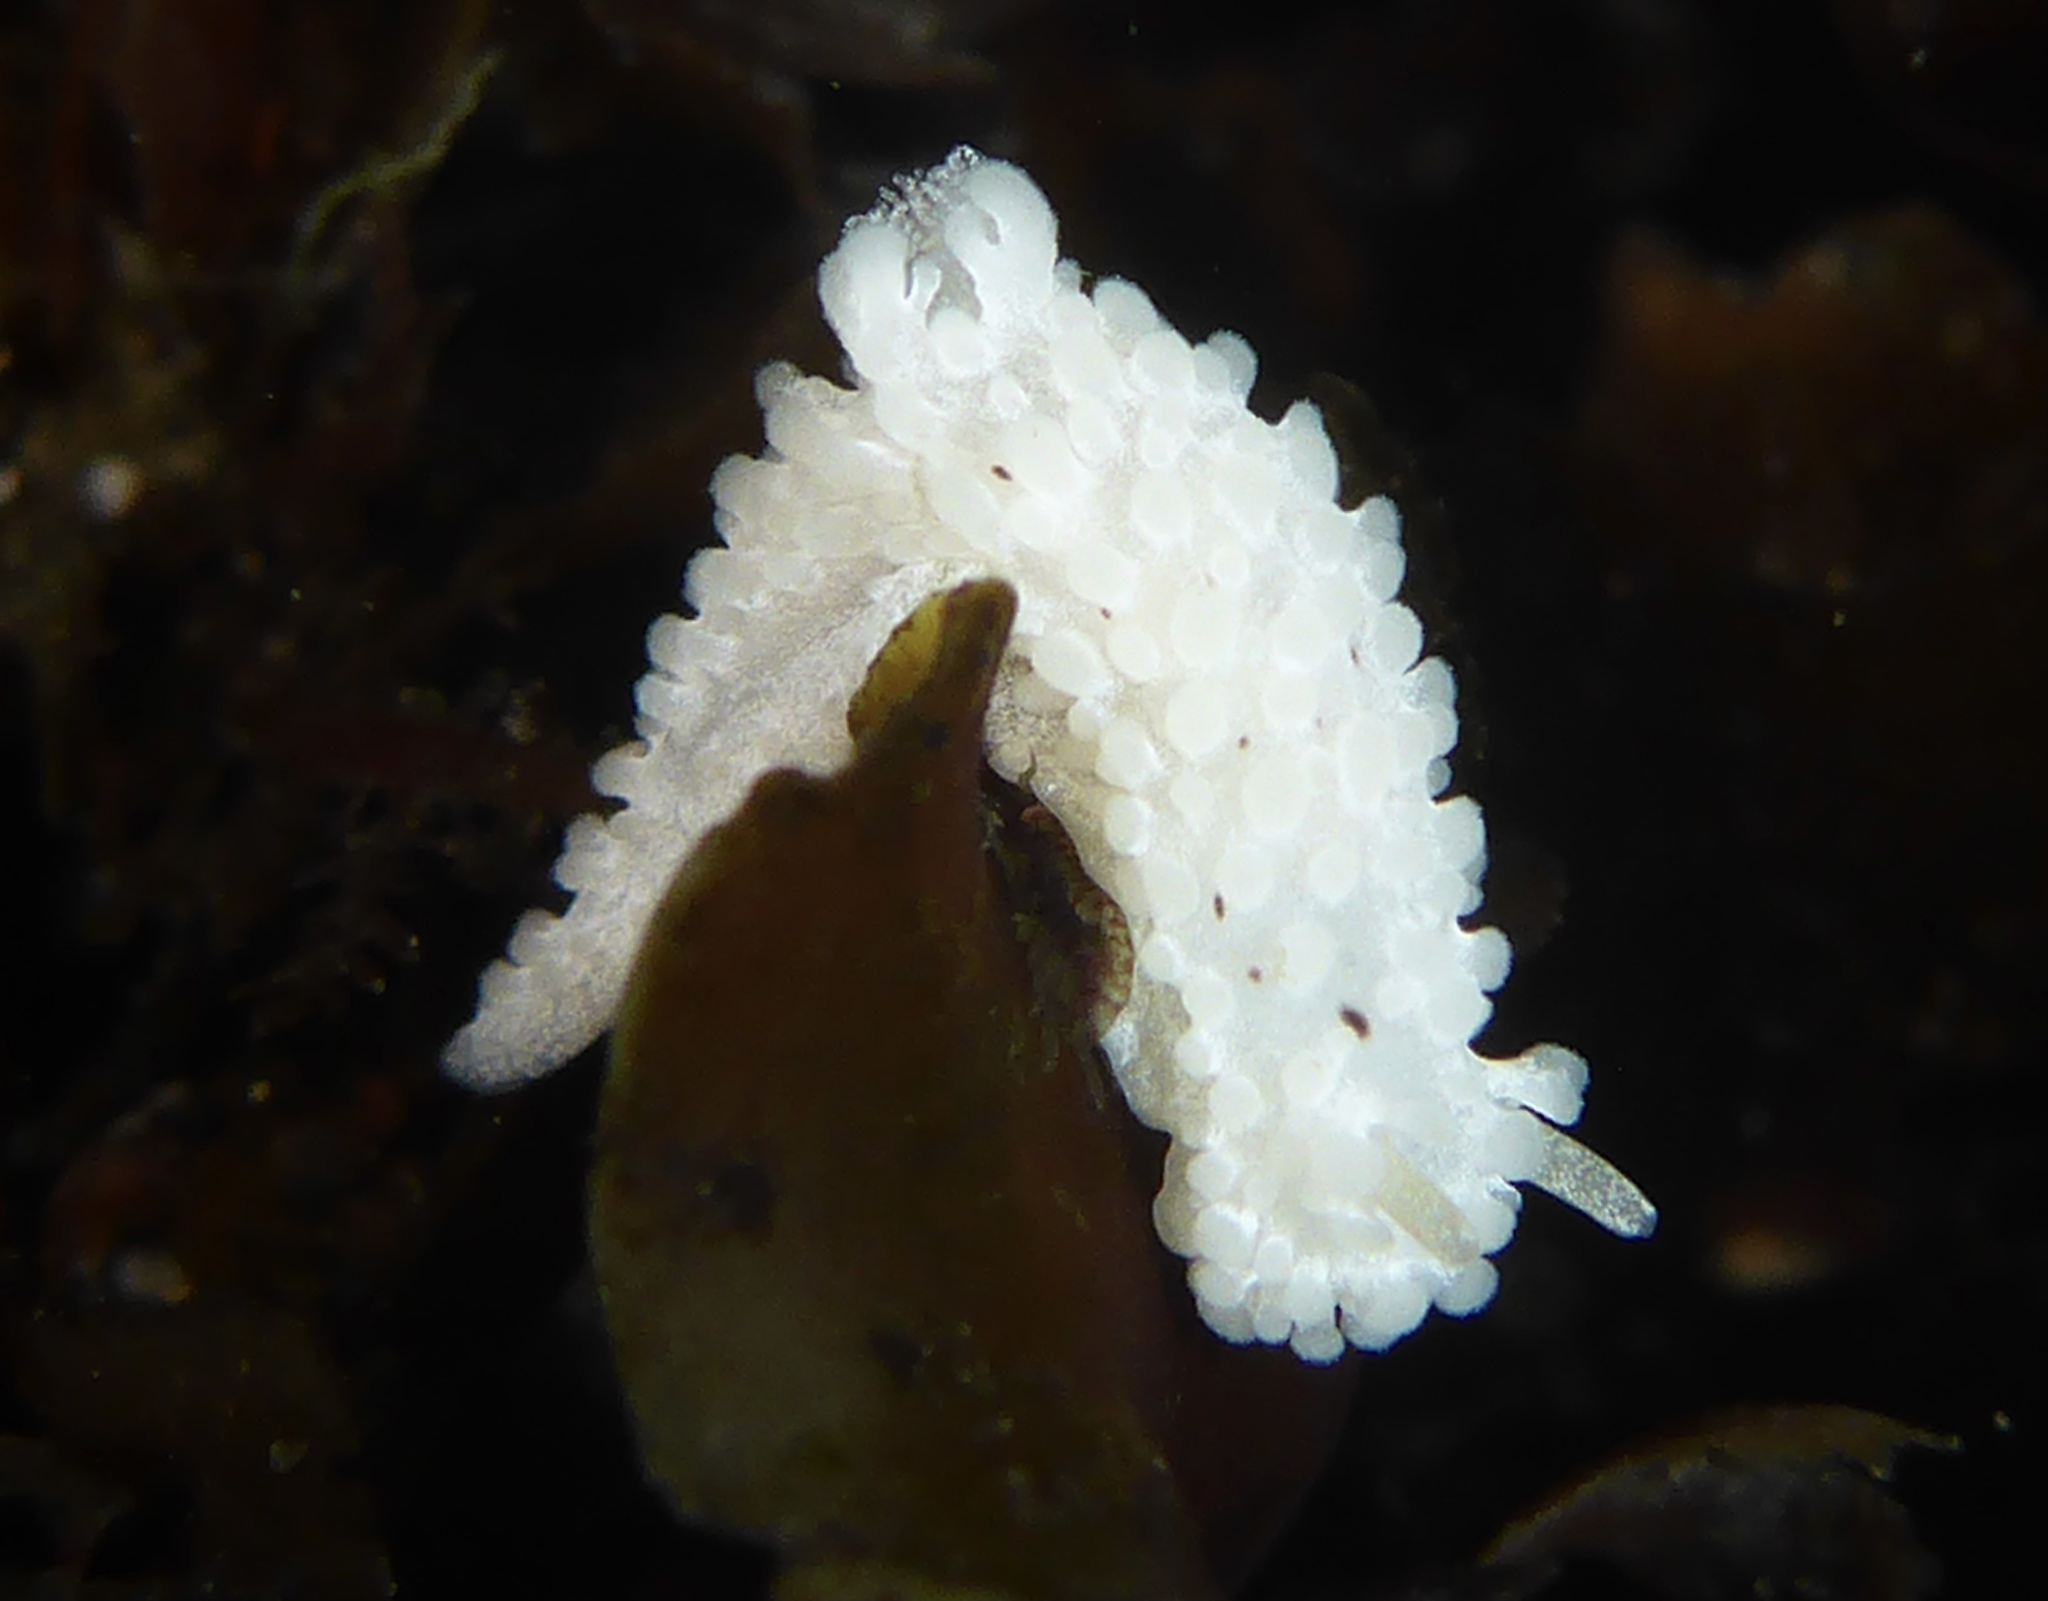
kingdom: Animalia
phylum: Mollusca
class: Gastropoda
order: Nudibranchia
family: Aegiridae
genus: Aegires
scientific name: Aegires albopunctatus
